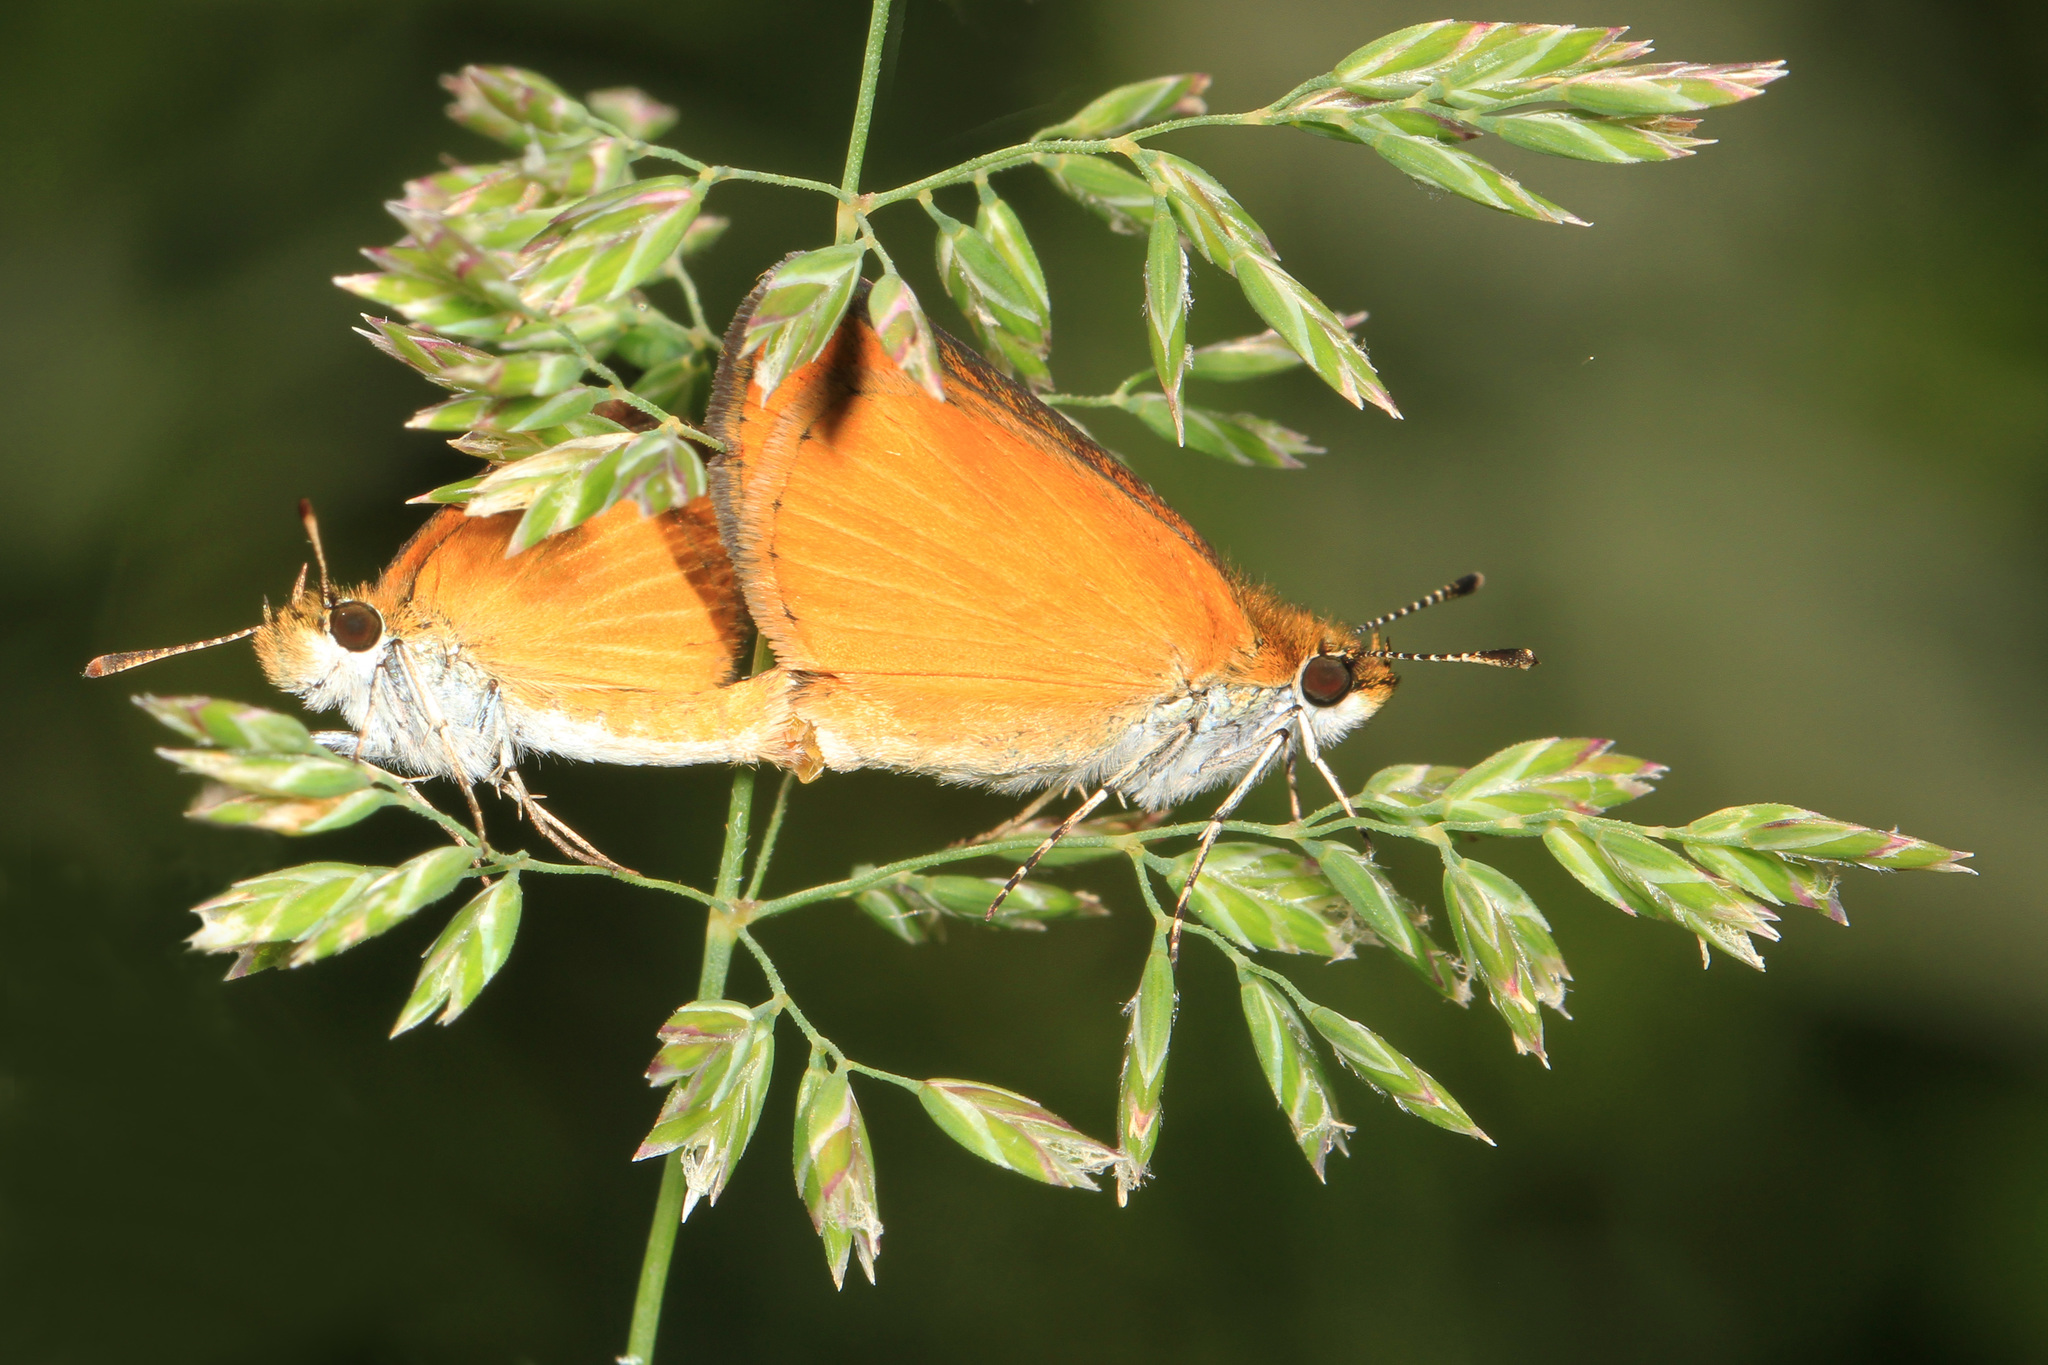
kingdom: Animalia
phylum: Arthropoda
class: Insecta
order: Lepidoptera
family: Hesperiidae
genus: Ancyloxypha
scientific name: Ancyloxypha numitor
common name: Least skipper
